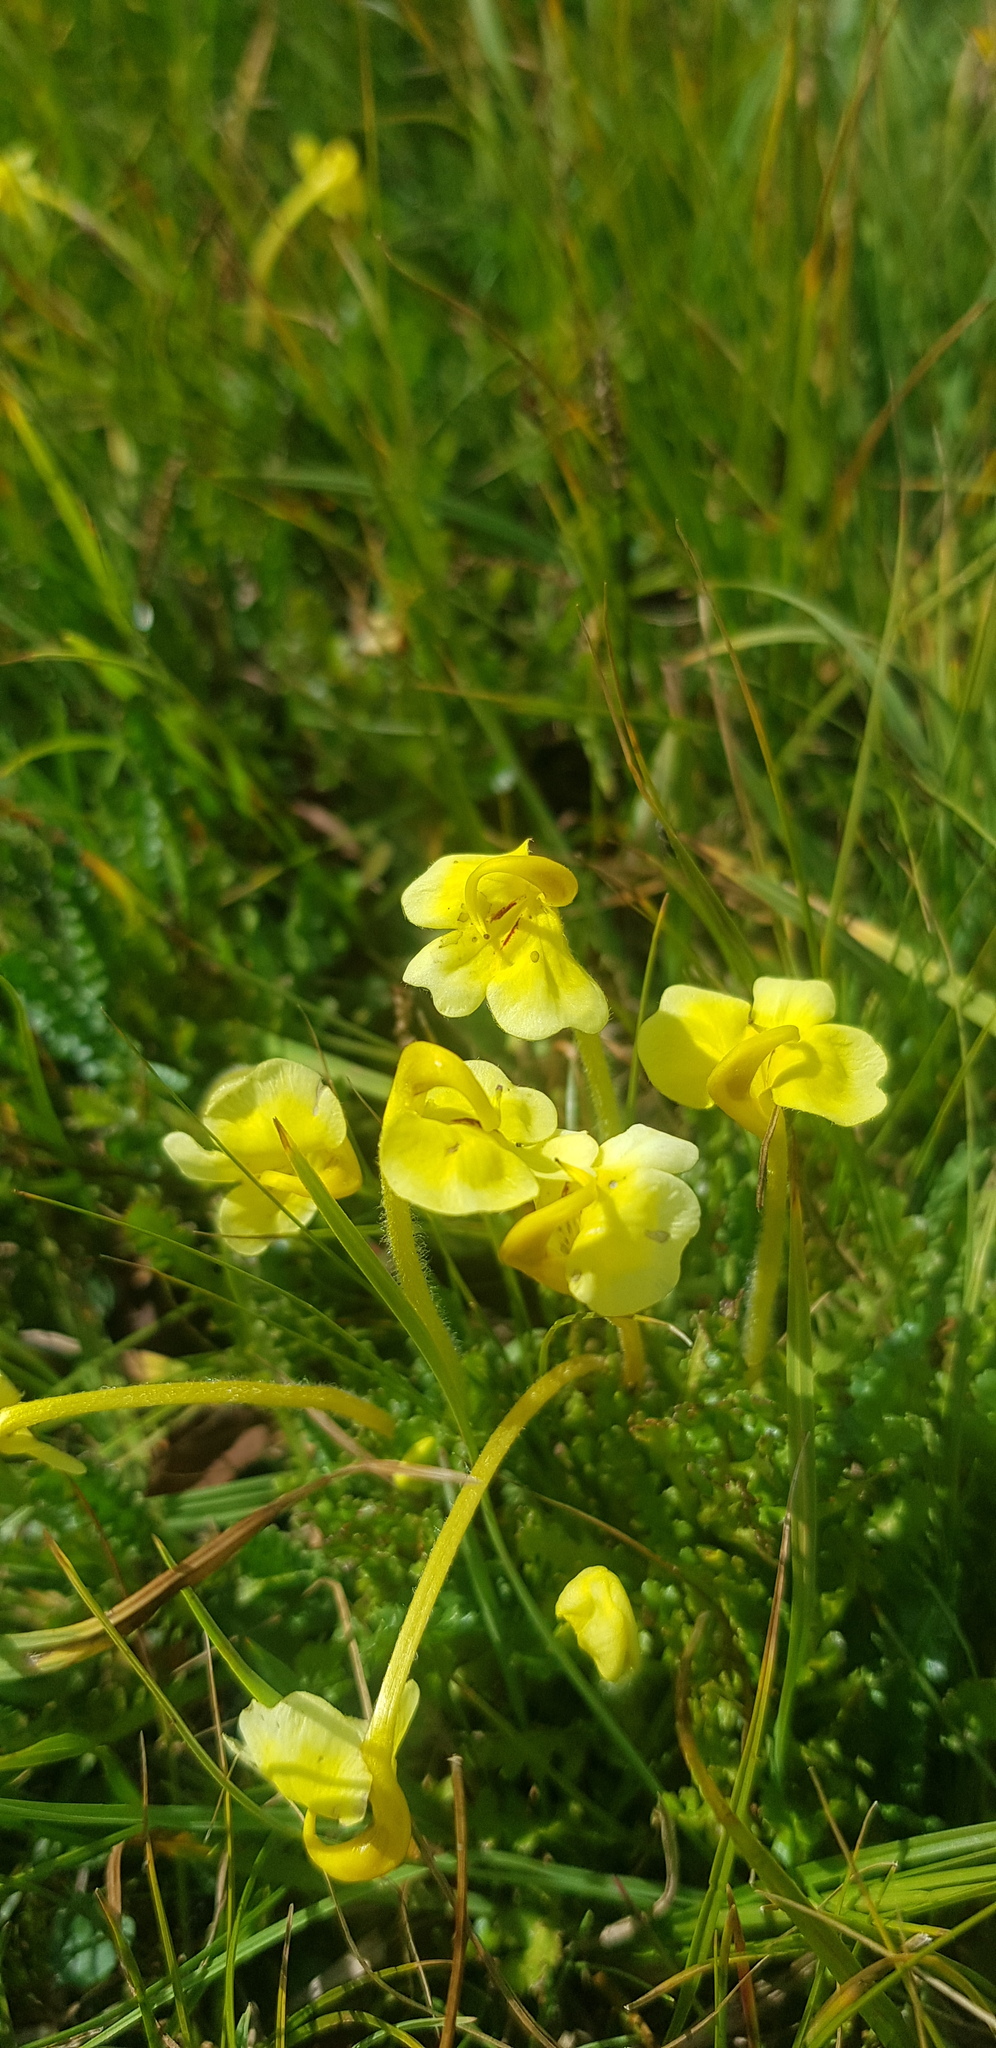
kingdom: Plantae
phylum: Tracheophyta
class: Magnoliopsida
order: Lamiales
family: Orobanchaceae
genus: Pedicularis
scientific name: Pedicularis longiflora
